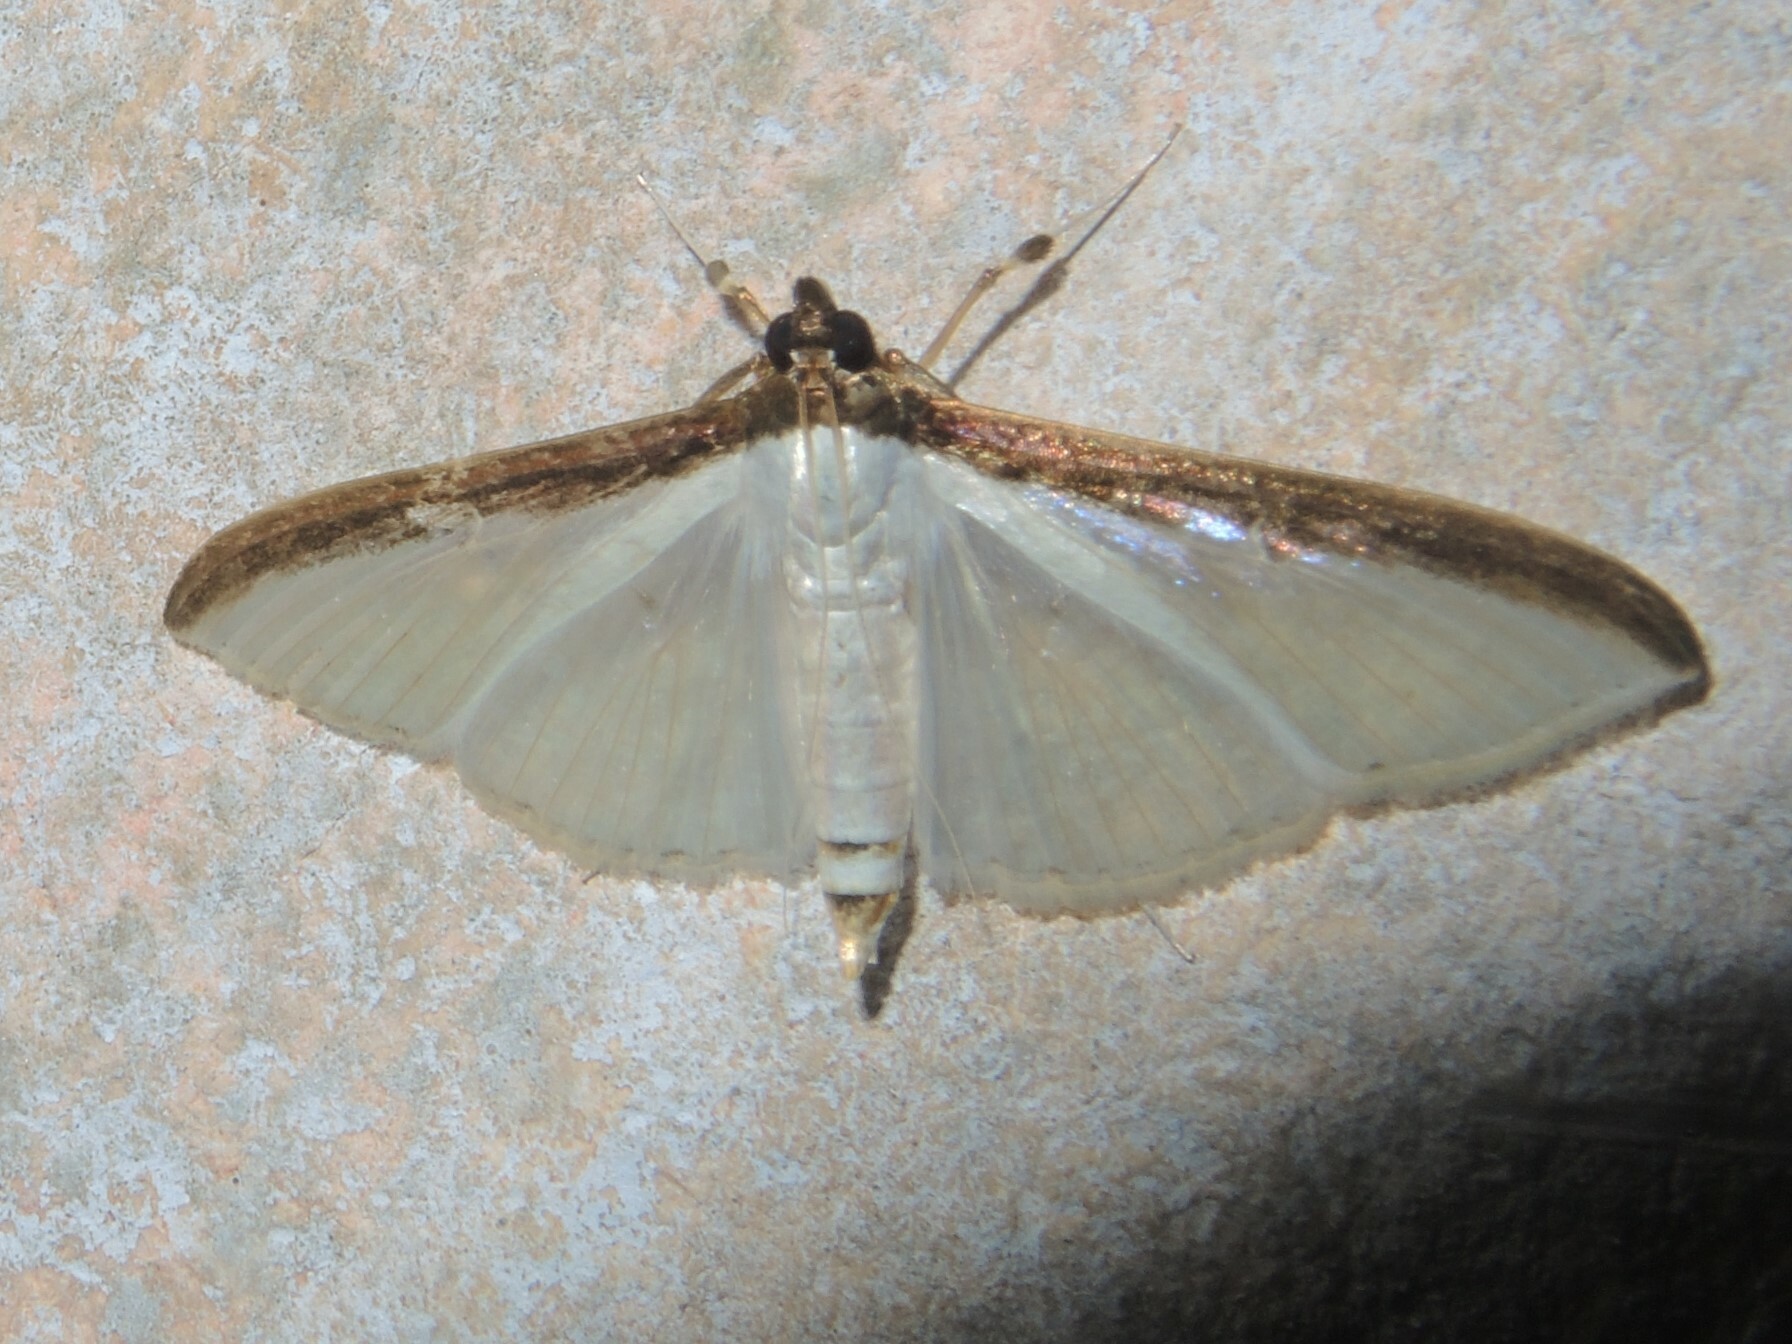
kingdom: Animalia
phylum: Arthropoda
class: Insecta
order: Lepidoptera
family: Crambidae
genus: Cydalima
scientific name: Cydalima laticostalis
